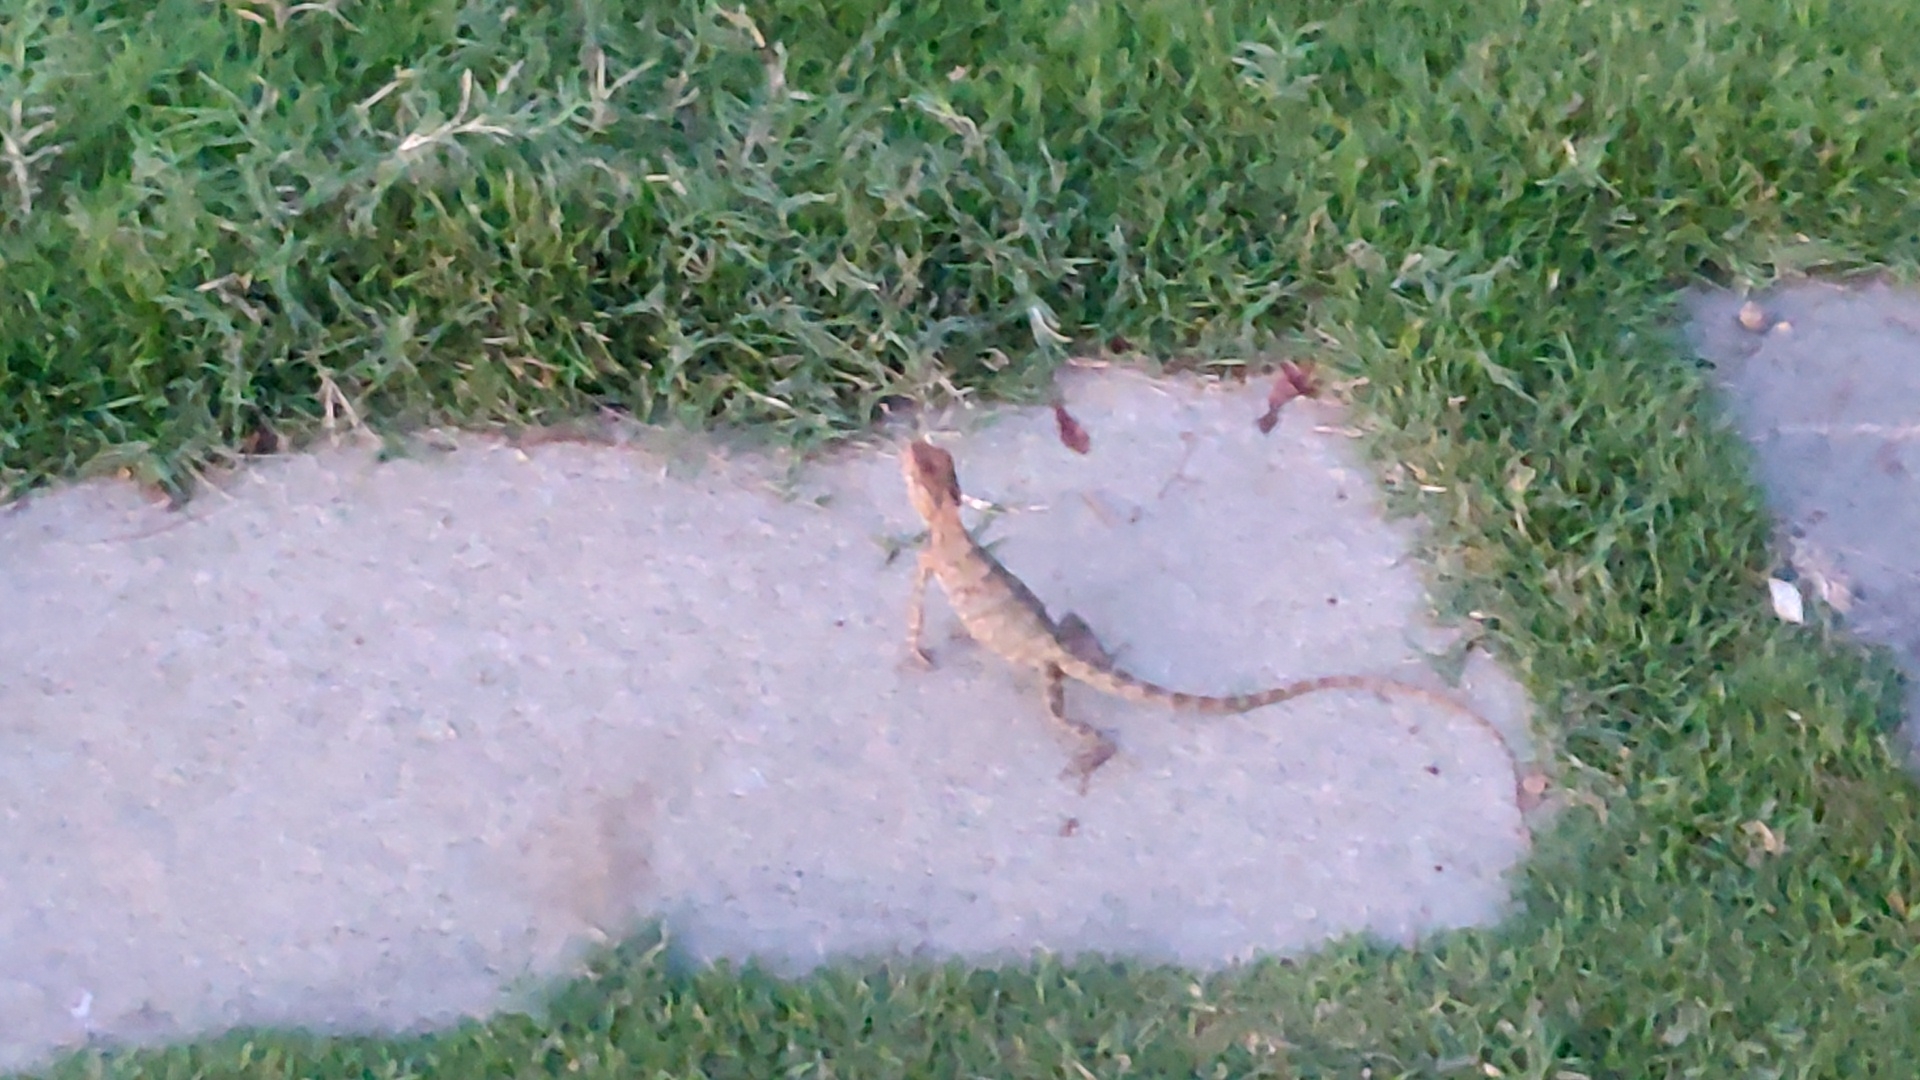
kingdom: Animalia
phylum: Chordata
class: Squamata
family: Agamidae
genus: Calotes
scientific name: Calotes versicolor
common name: Oriental garden lizard
